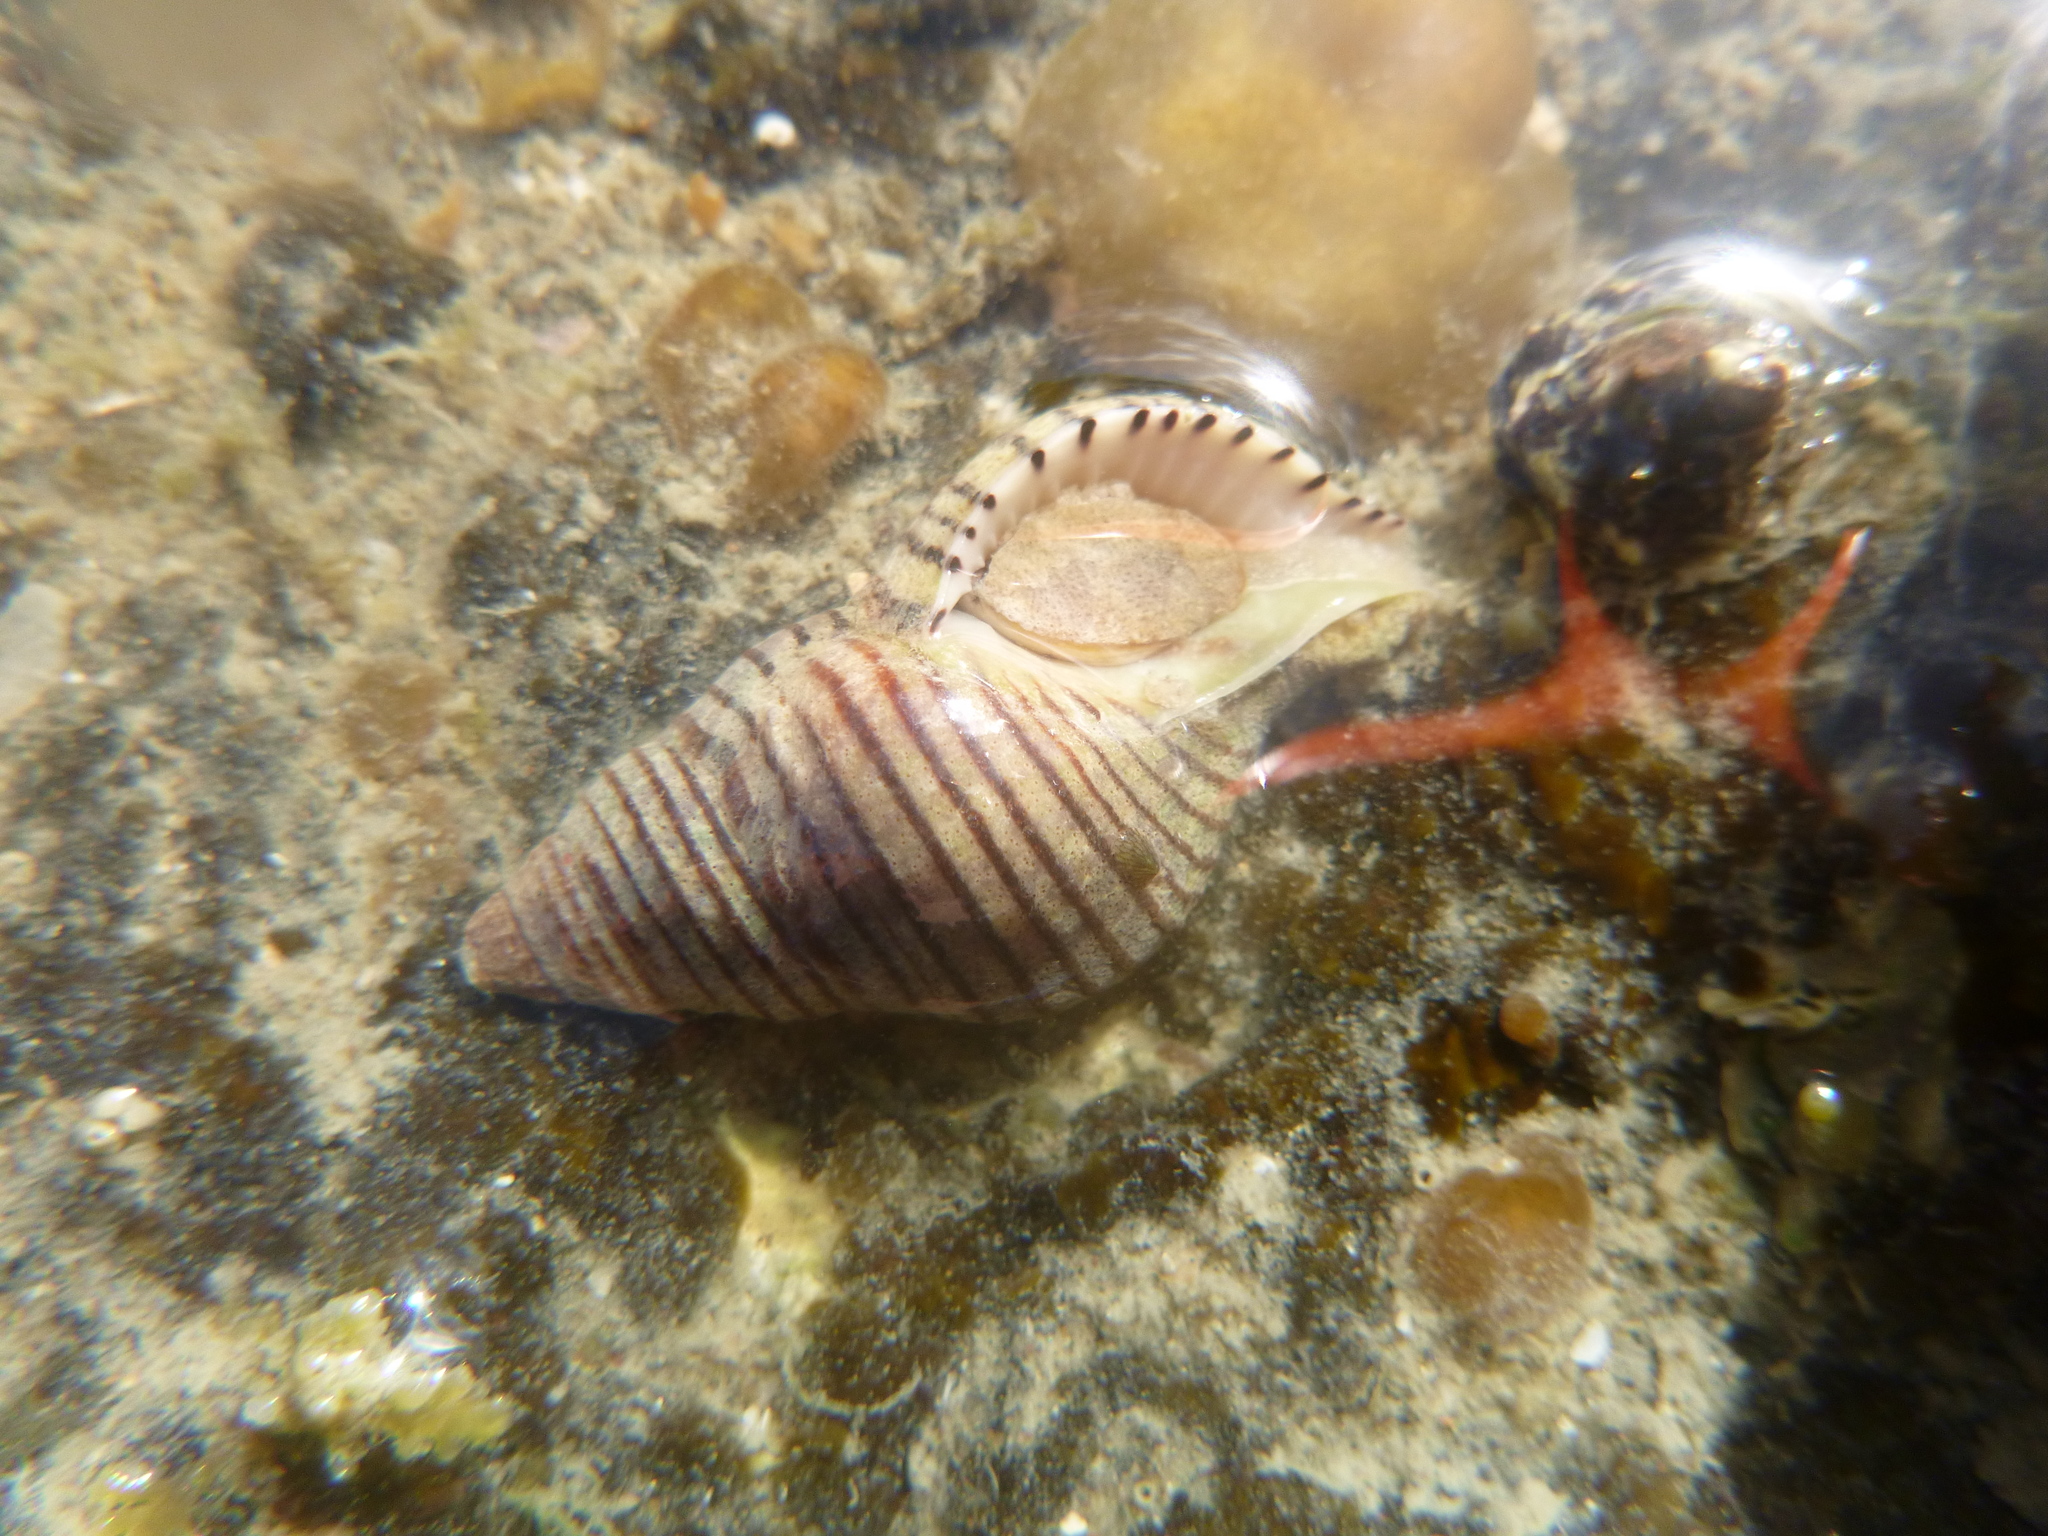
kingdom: Animalia
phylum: Mollusca
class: Gastropoda
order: Neogastropoda
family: Tudiclidae
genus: Buccinulum
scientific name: Buccinulum linea
